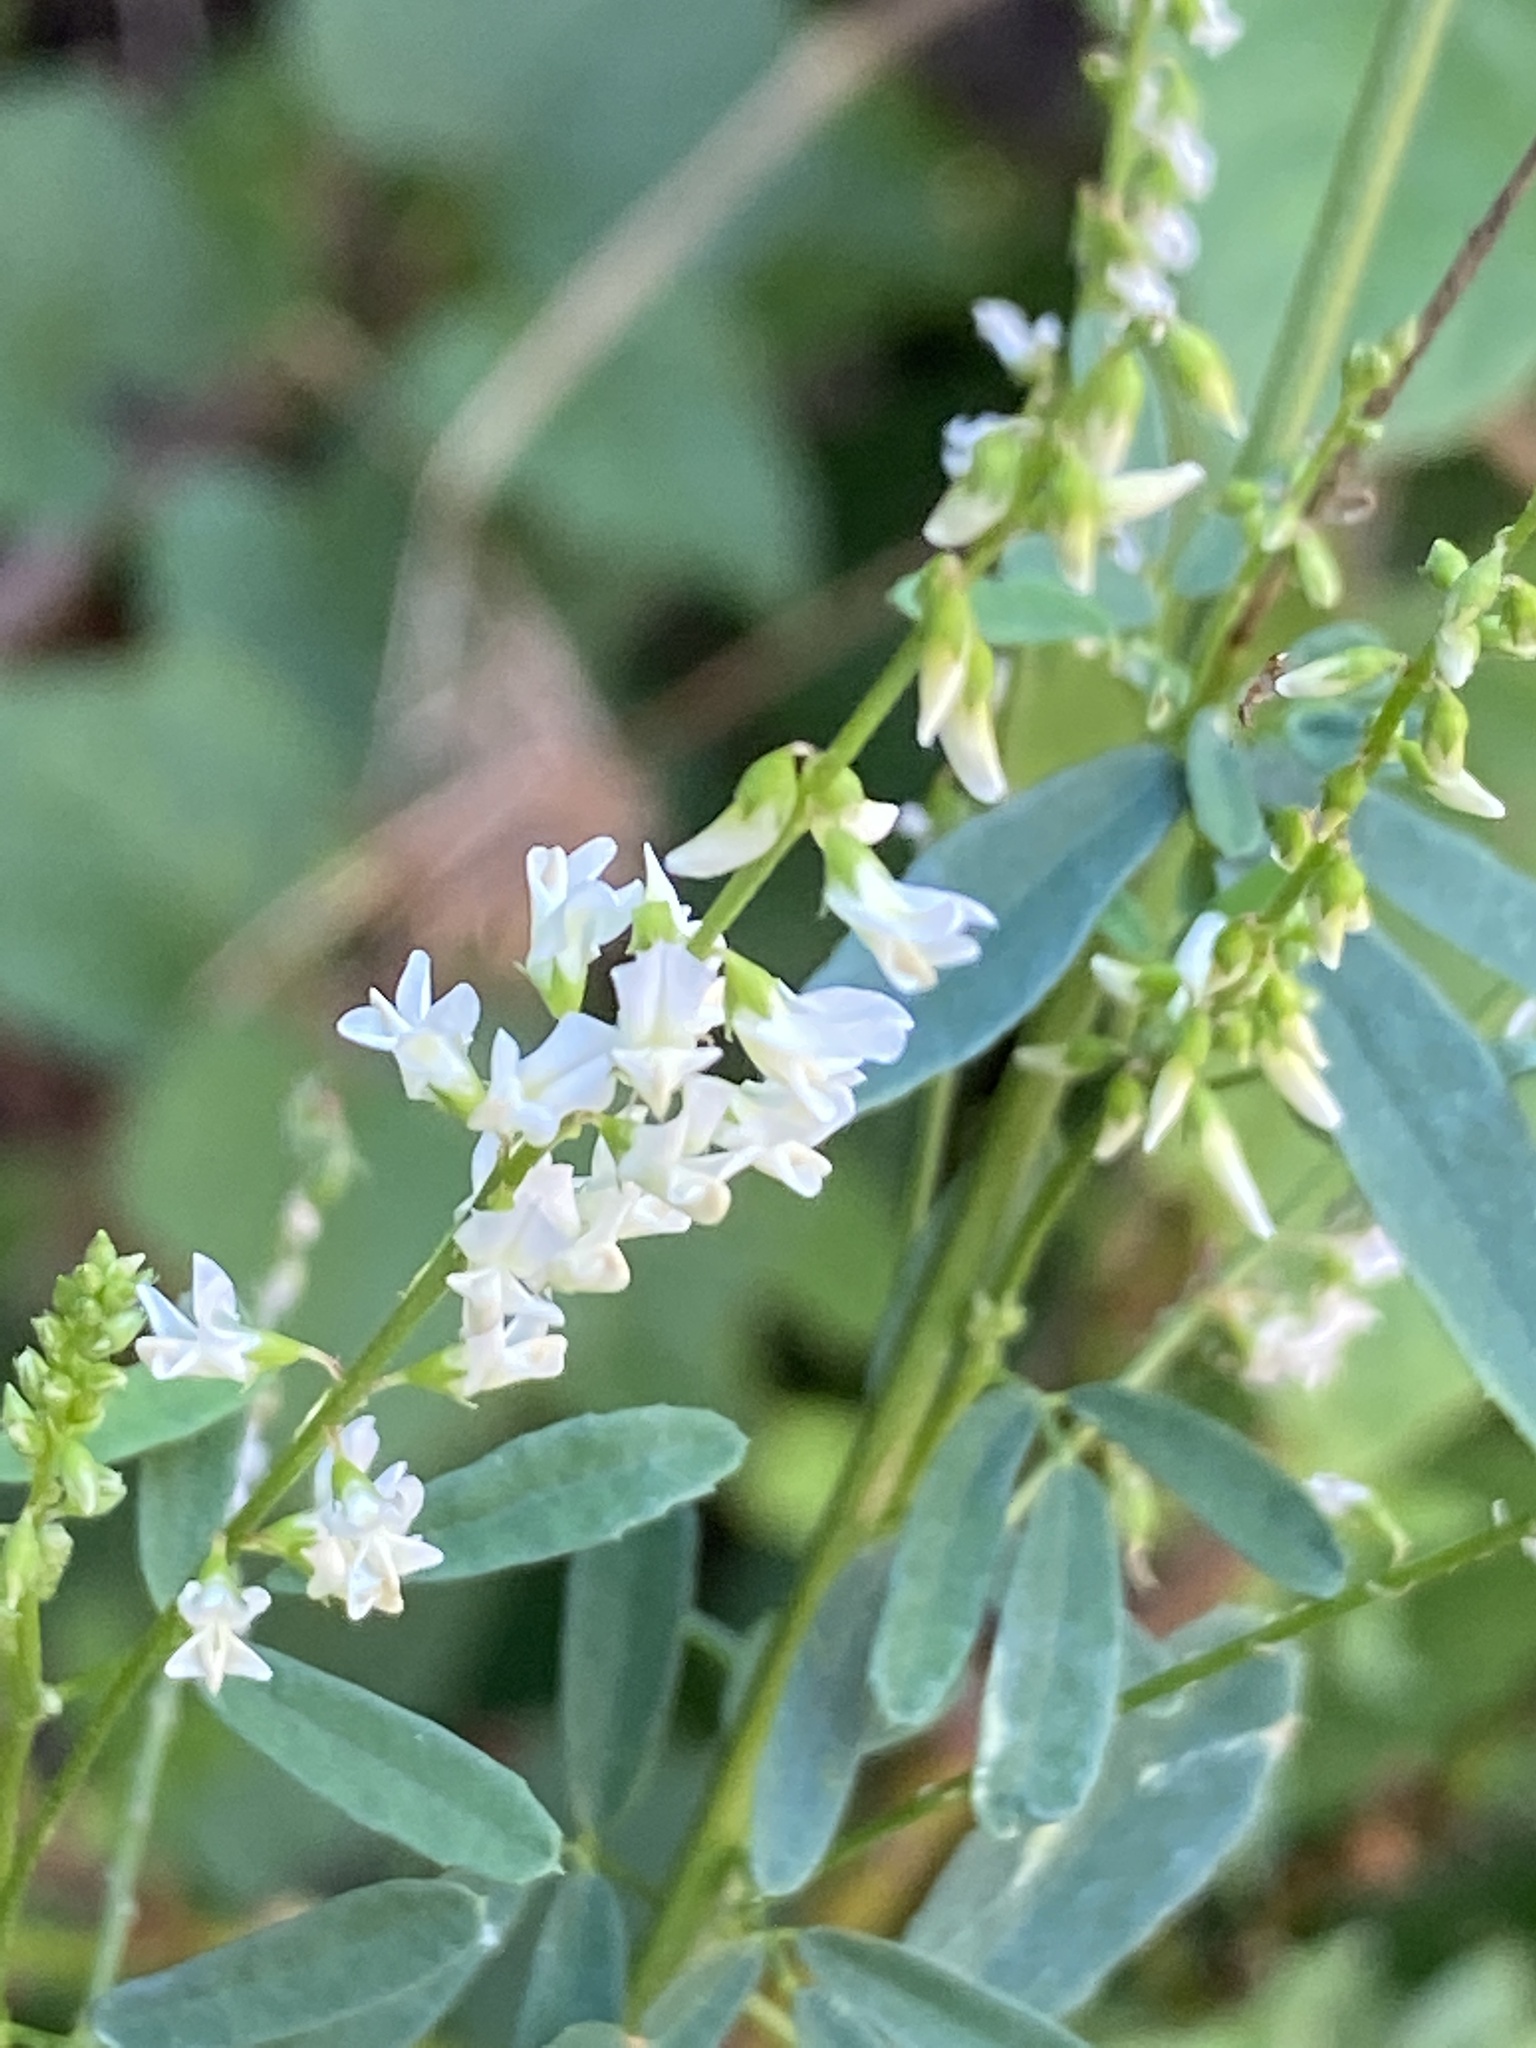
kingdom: Plantae
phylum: Tracheophyta
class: Magnoliopsida
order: Fabales
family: Fabaceae
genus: Melilotus
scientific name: Melilotus albus
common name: White melilot
